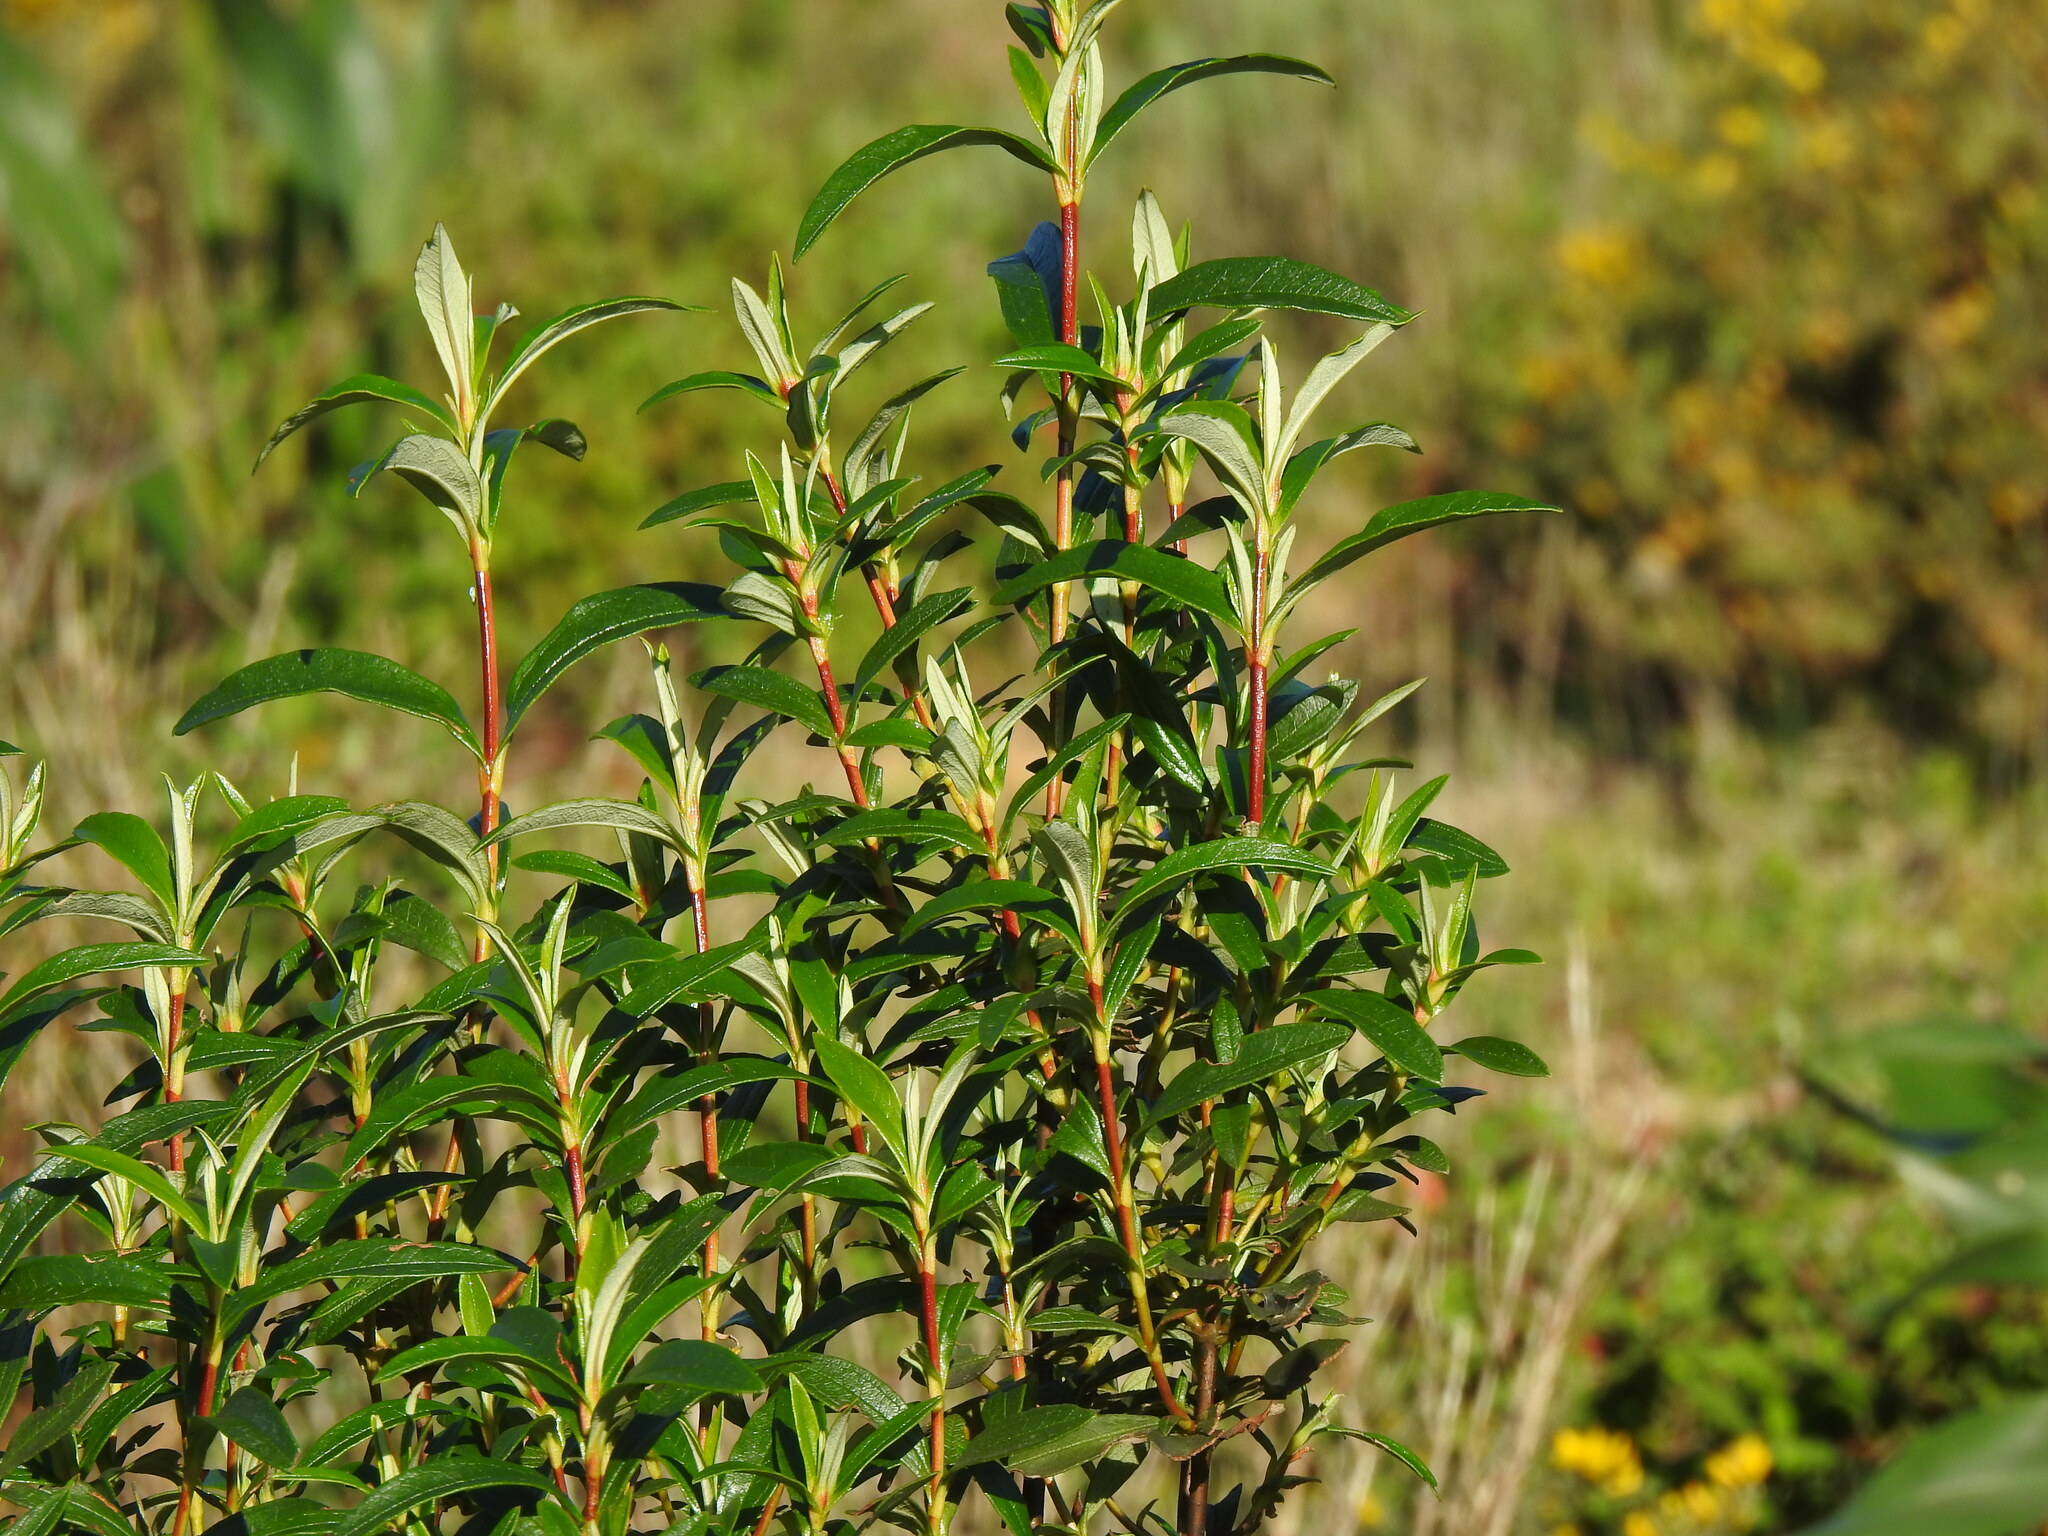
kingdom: Plantae
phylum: Tracheophyta
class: Magnoliopsida
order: Malvales
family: Cistaceae
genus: Cistus
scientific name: Cistus ladanifer
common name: Common gum cistus
